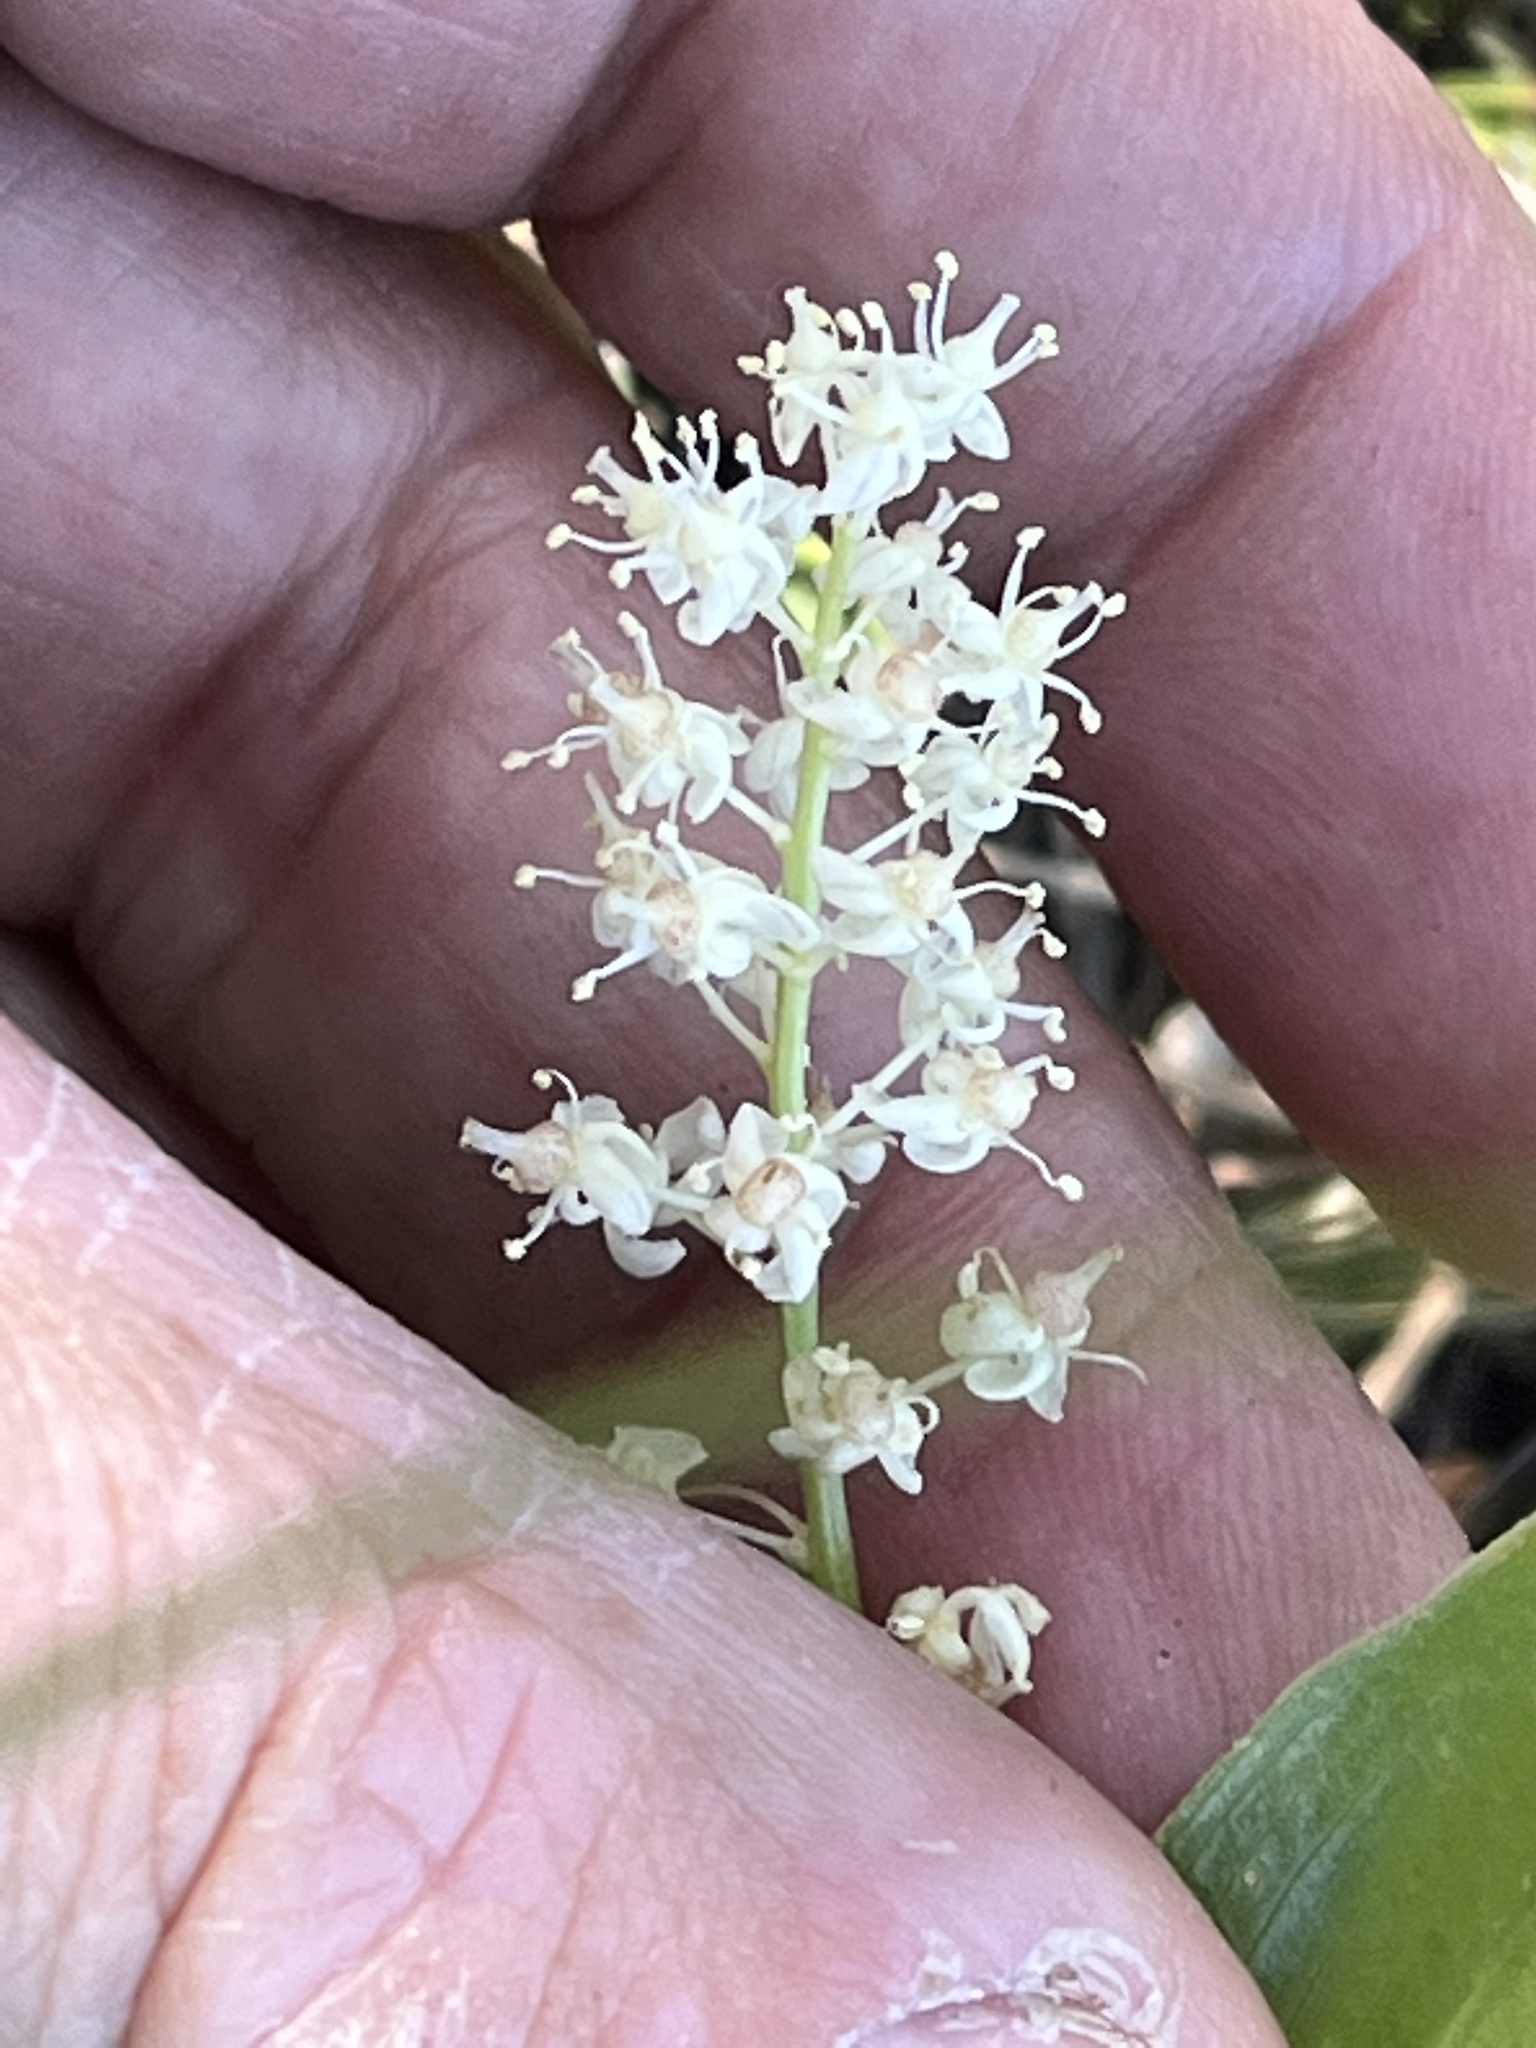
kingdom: Plantae
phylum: Tracheophyta
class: Liliopsida
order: Asparagales
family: Asparagaceae
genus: Maianthemum
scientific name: Maianthemum canadense
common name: False lily-of-the-valley
